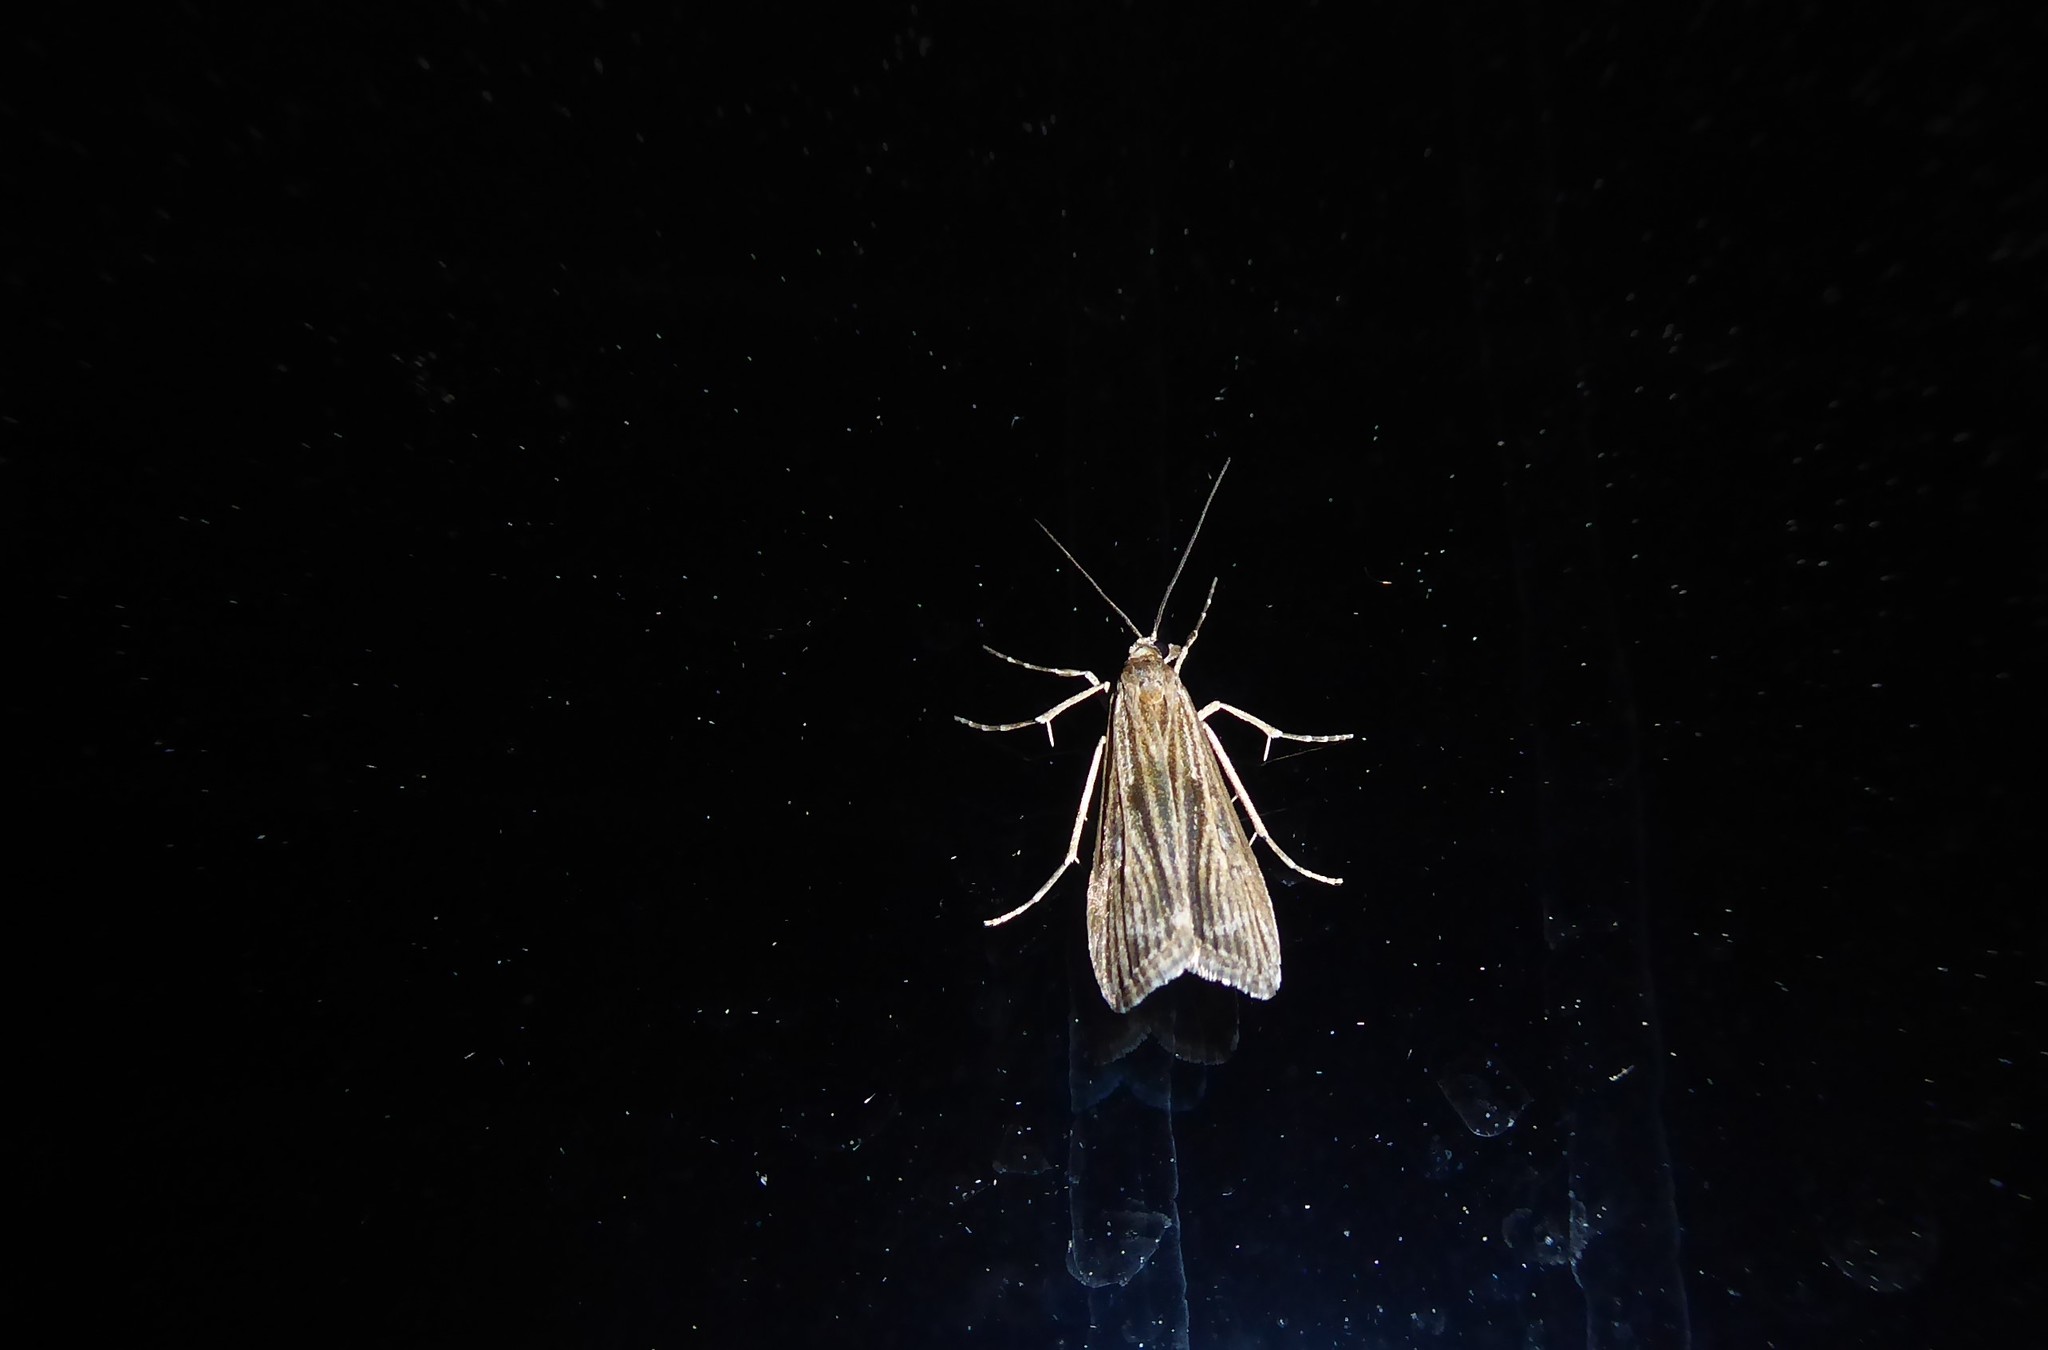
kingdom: Animalia
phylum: Arthropoda
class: Insecta
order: Lepidoptera
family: Crambidae
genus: Eudonia
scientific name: Eudonia atmogramma
